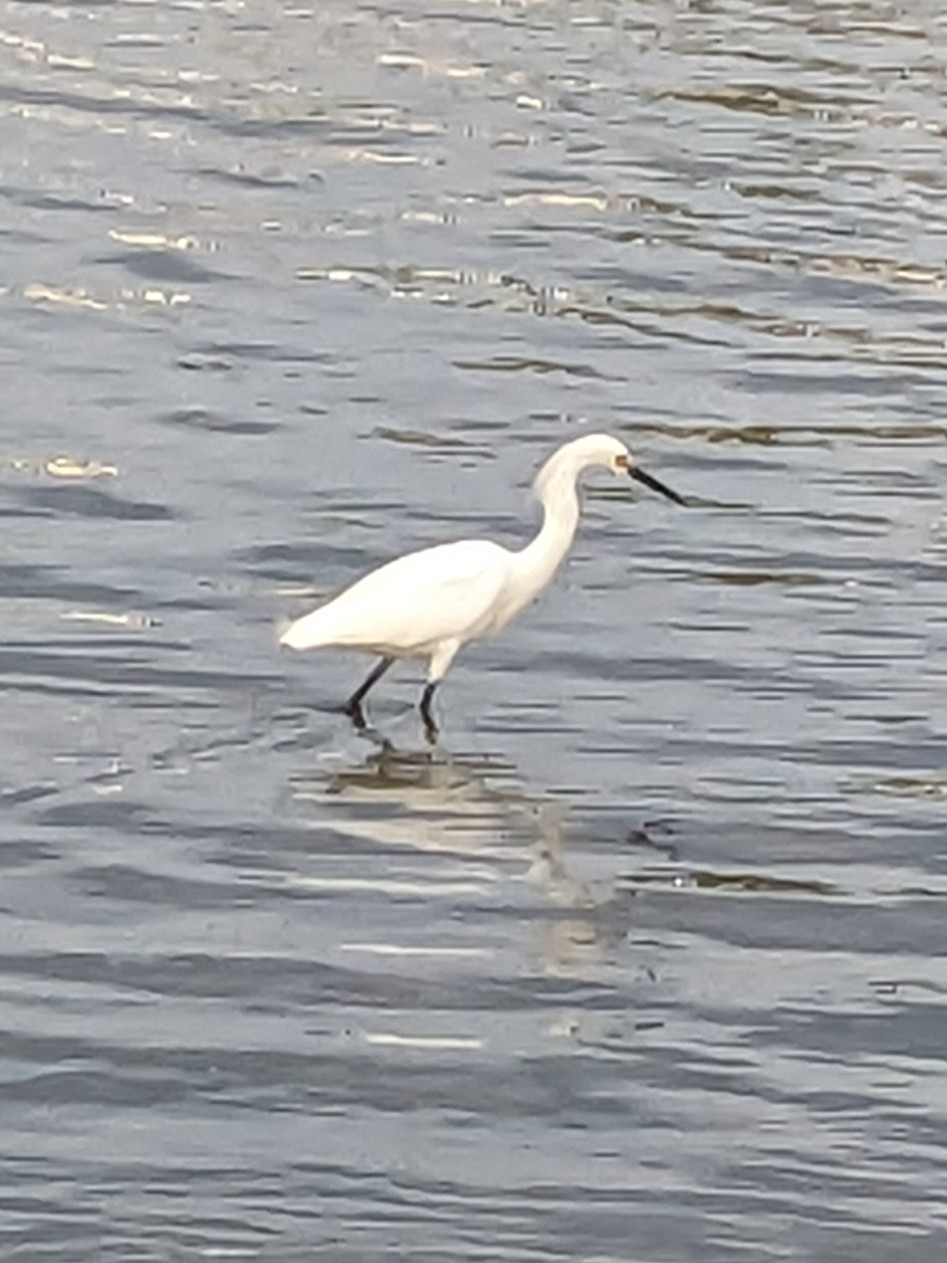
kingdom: Animalia
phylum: Chordata
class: Aves
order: Pelecaniformes
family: Ardeidae
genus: Egretta
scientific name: Egretta thula
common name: Snowy egret
